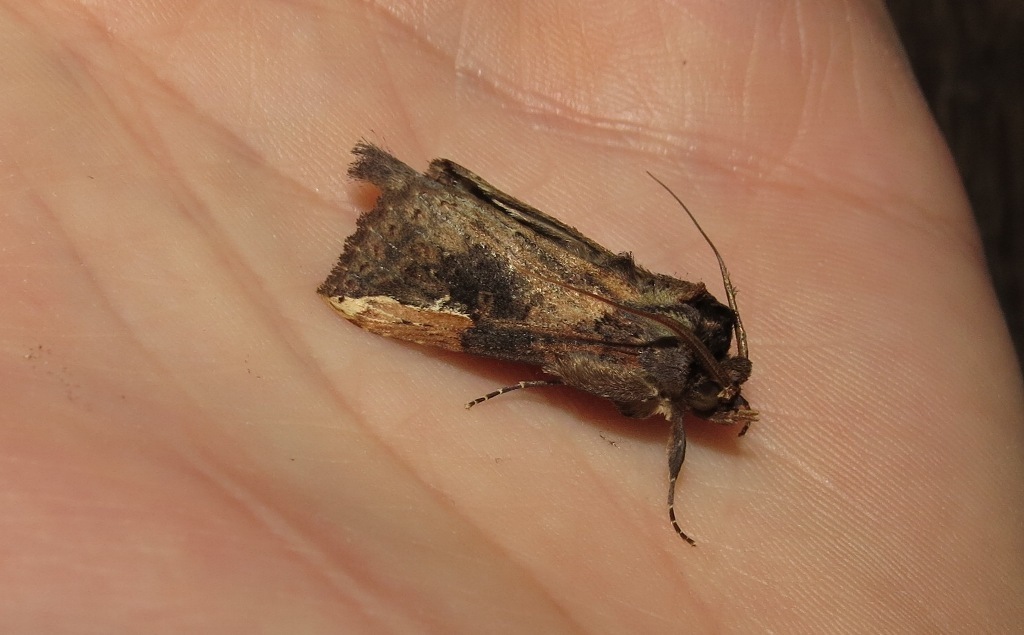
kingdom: Animalia
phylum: Arthropoda
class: Insecta
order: Lepidoptera
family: Notodontidae
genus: Hippia
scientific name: Hippia pronax
